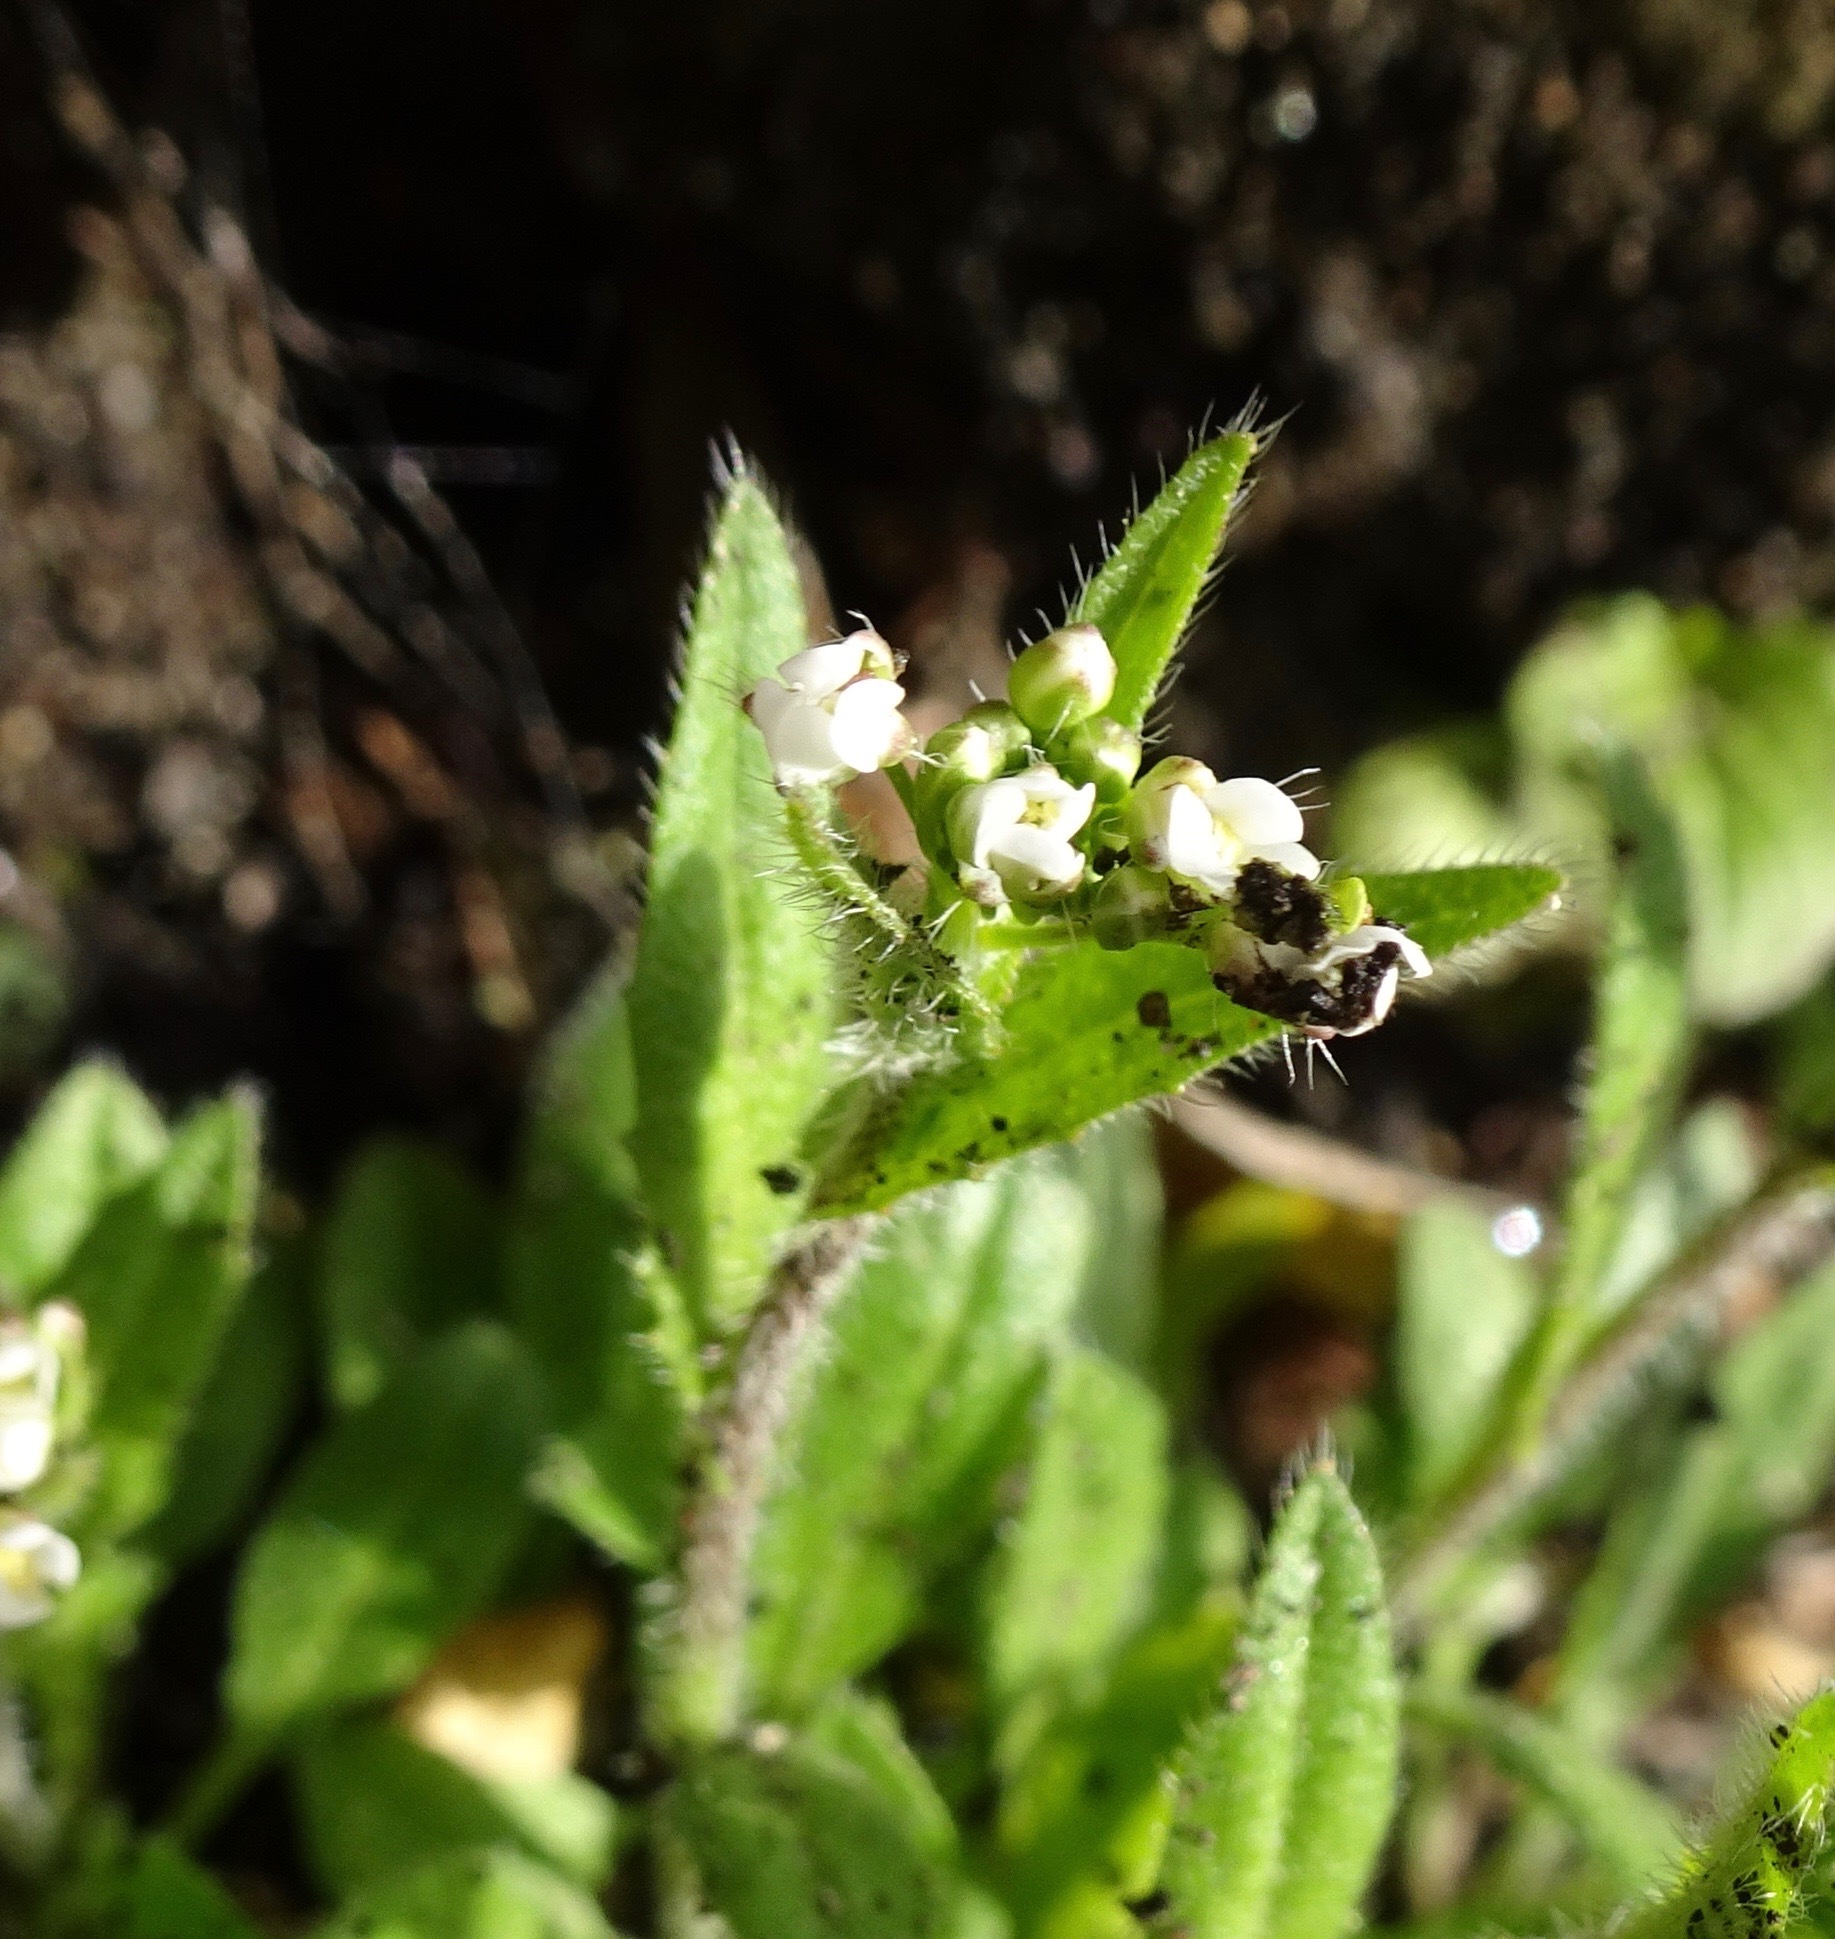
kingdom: Plantae
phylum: Tracheophyta
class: Magnoliopsida
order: Brassicales
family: Brassicaceae
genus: Arabidopsis
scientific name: Arabidopsis thaliana
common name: Thale cress
